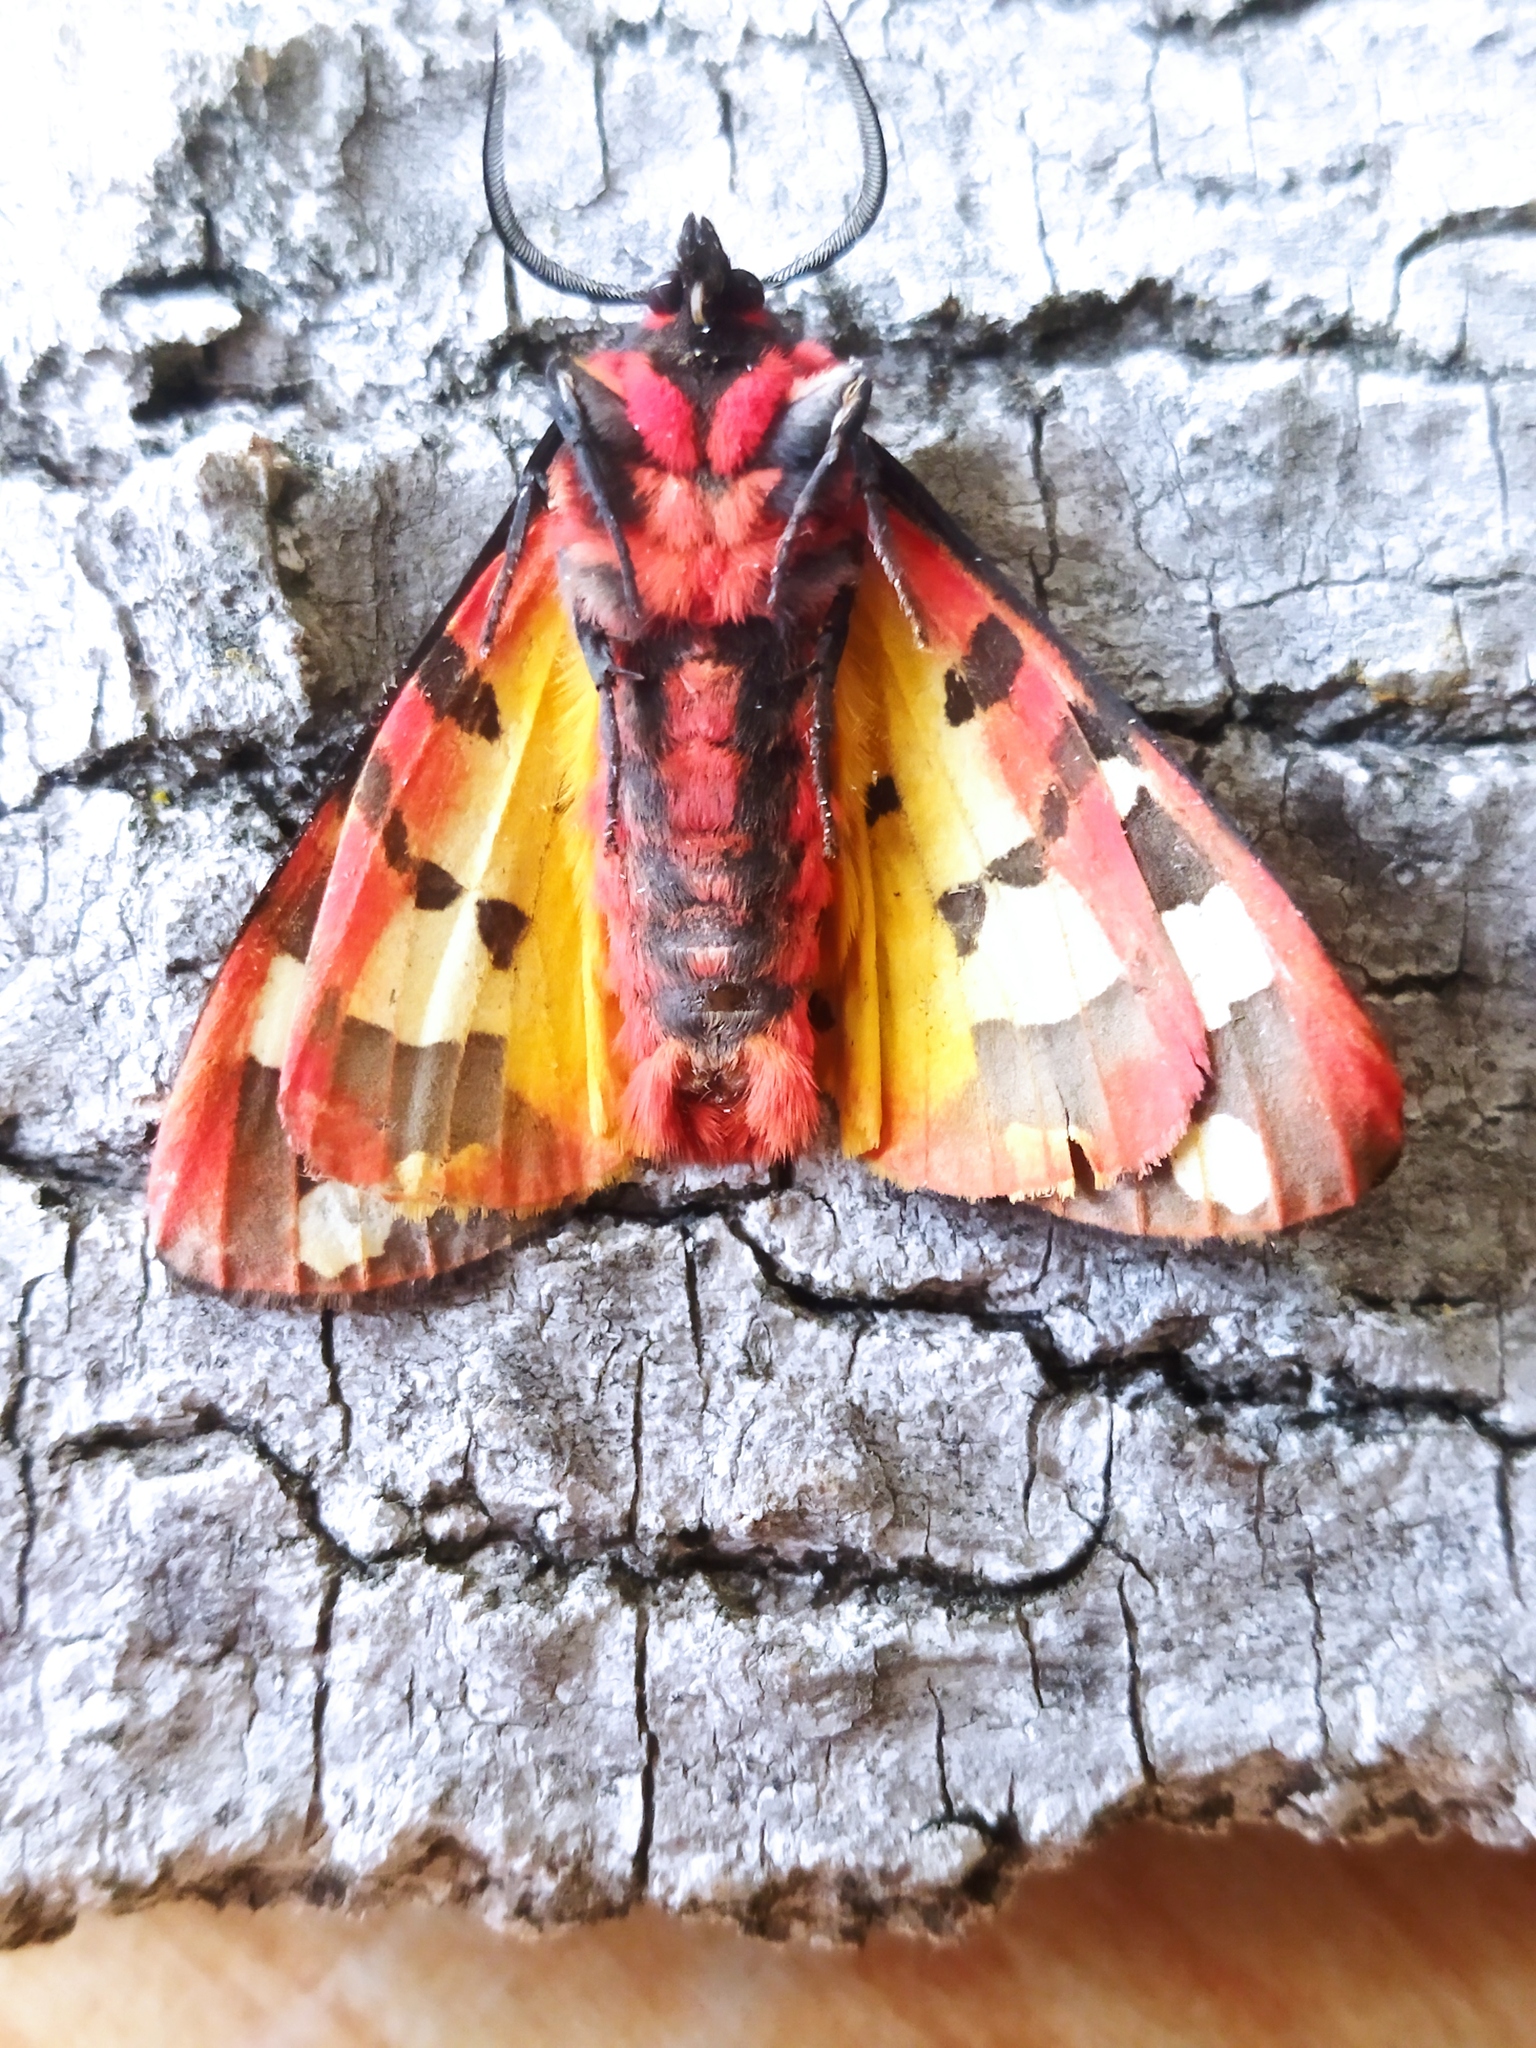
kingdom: Animalia
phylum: Arthropoda
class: Insecta
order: Lepidoptera
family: Erebidae
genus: Epicallia
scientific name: Epicallia villica
